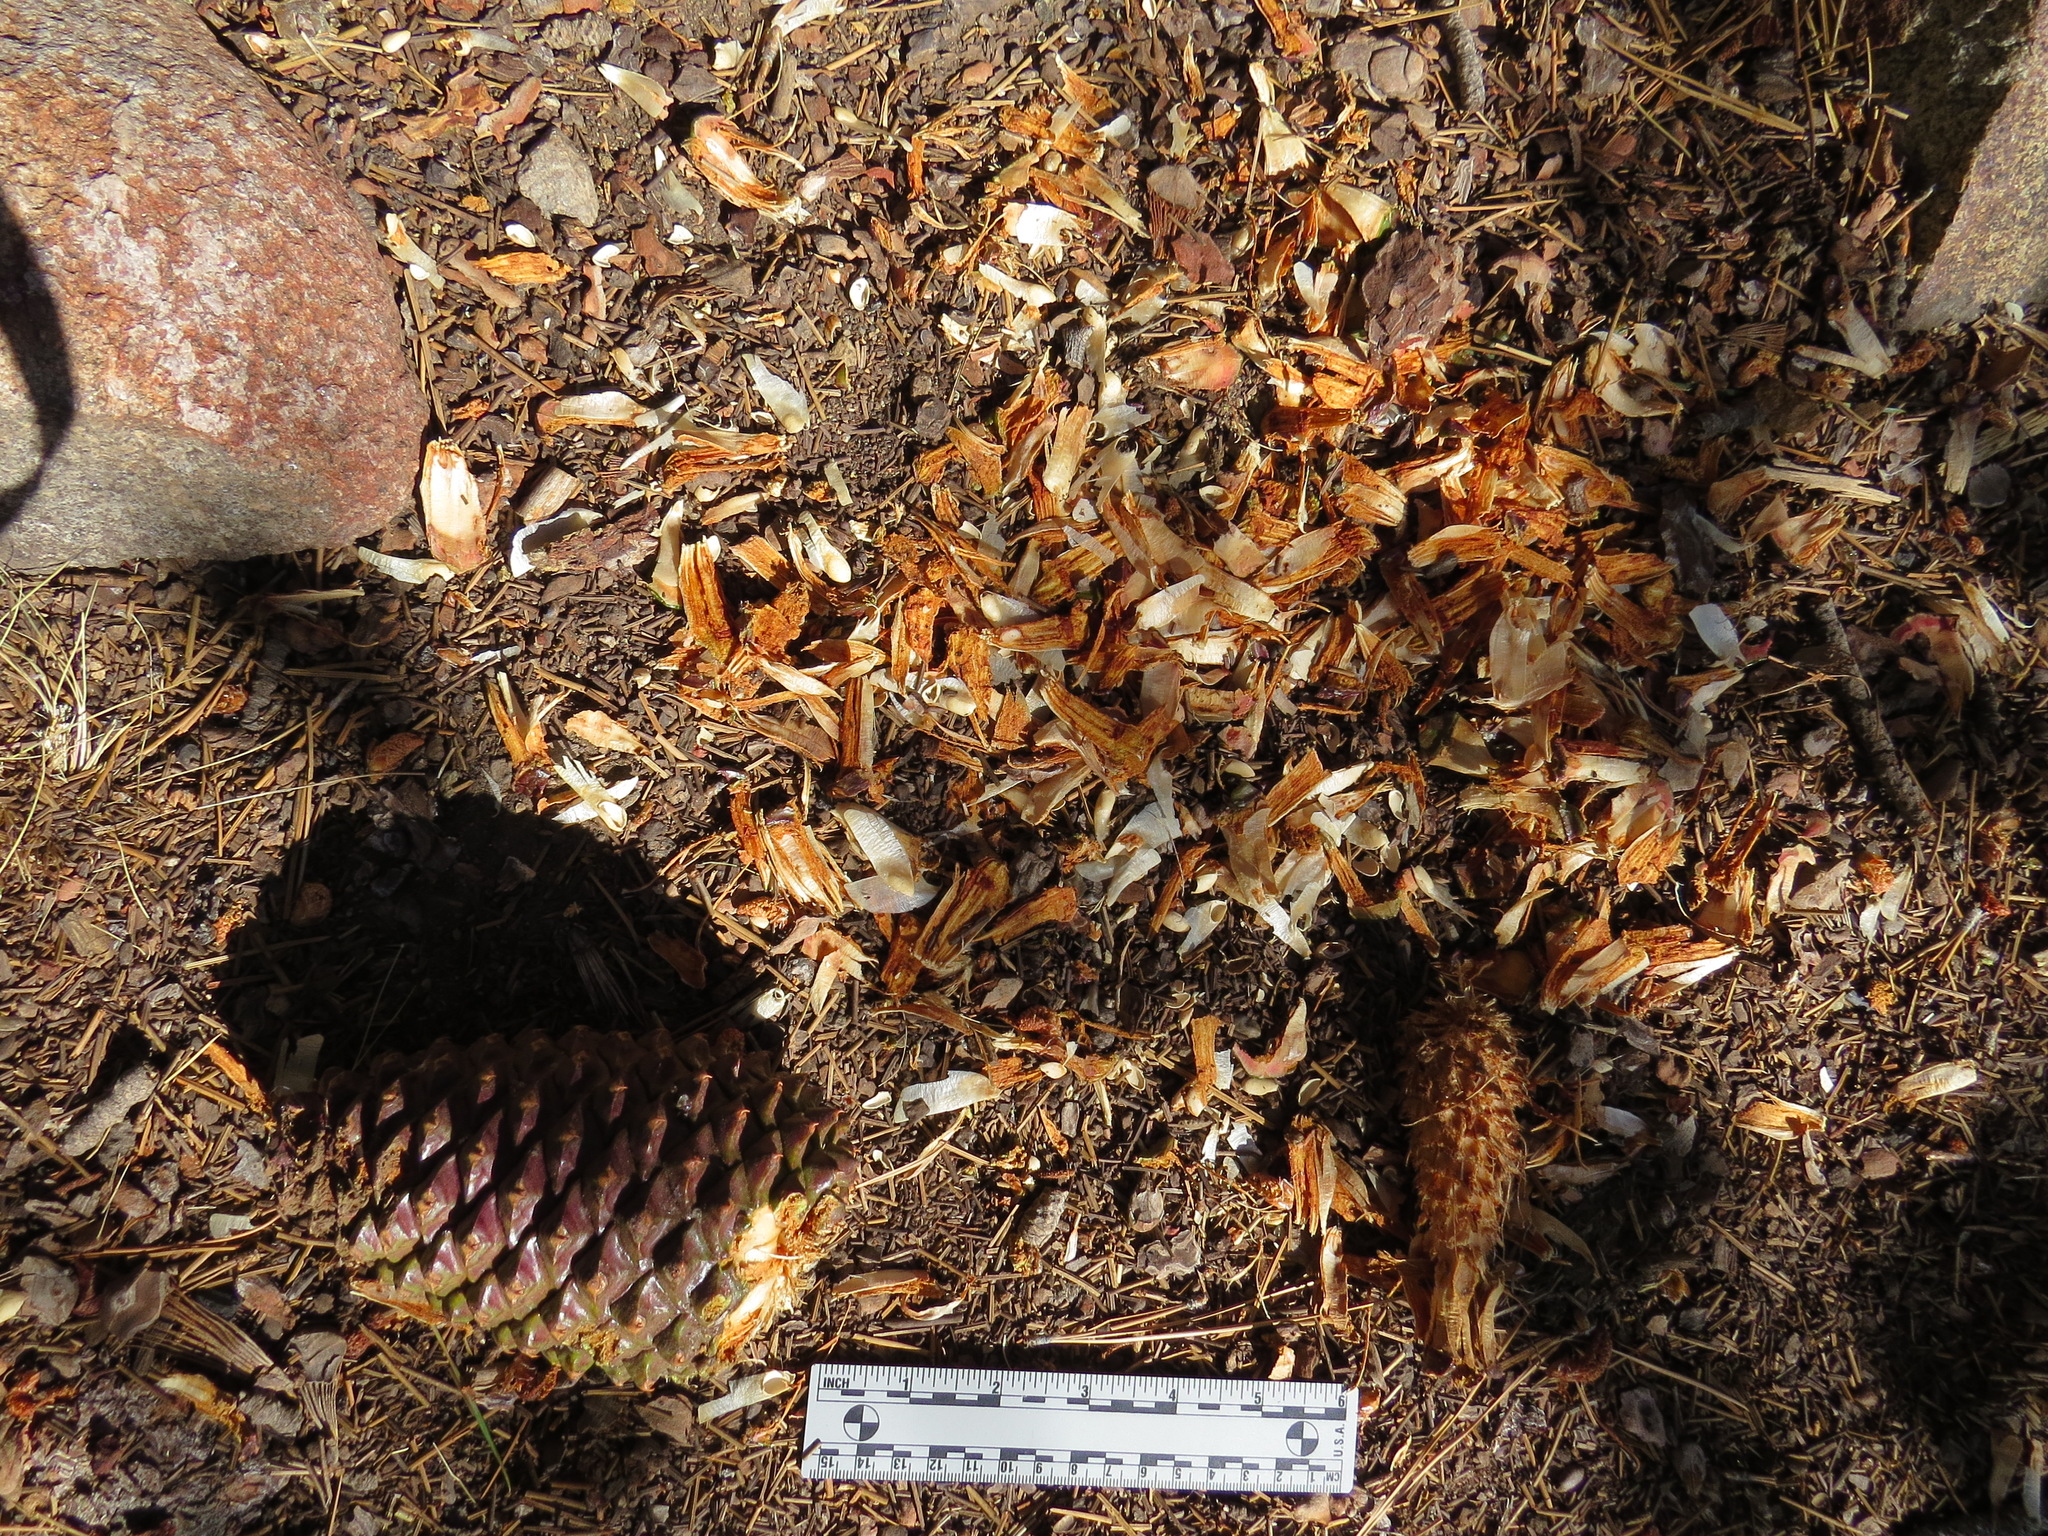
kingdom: Animalia
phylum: Chordata
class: Mammalia
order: Rodentia
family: Sciuridae
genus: Tamiasciurus
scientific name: Tamiasciurus douglasii
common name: Douglas's squirrel
